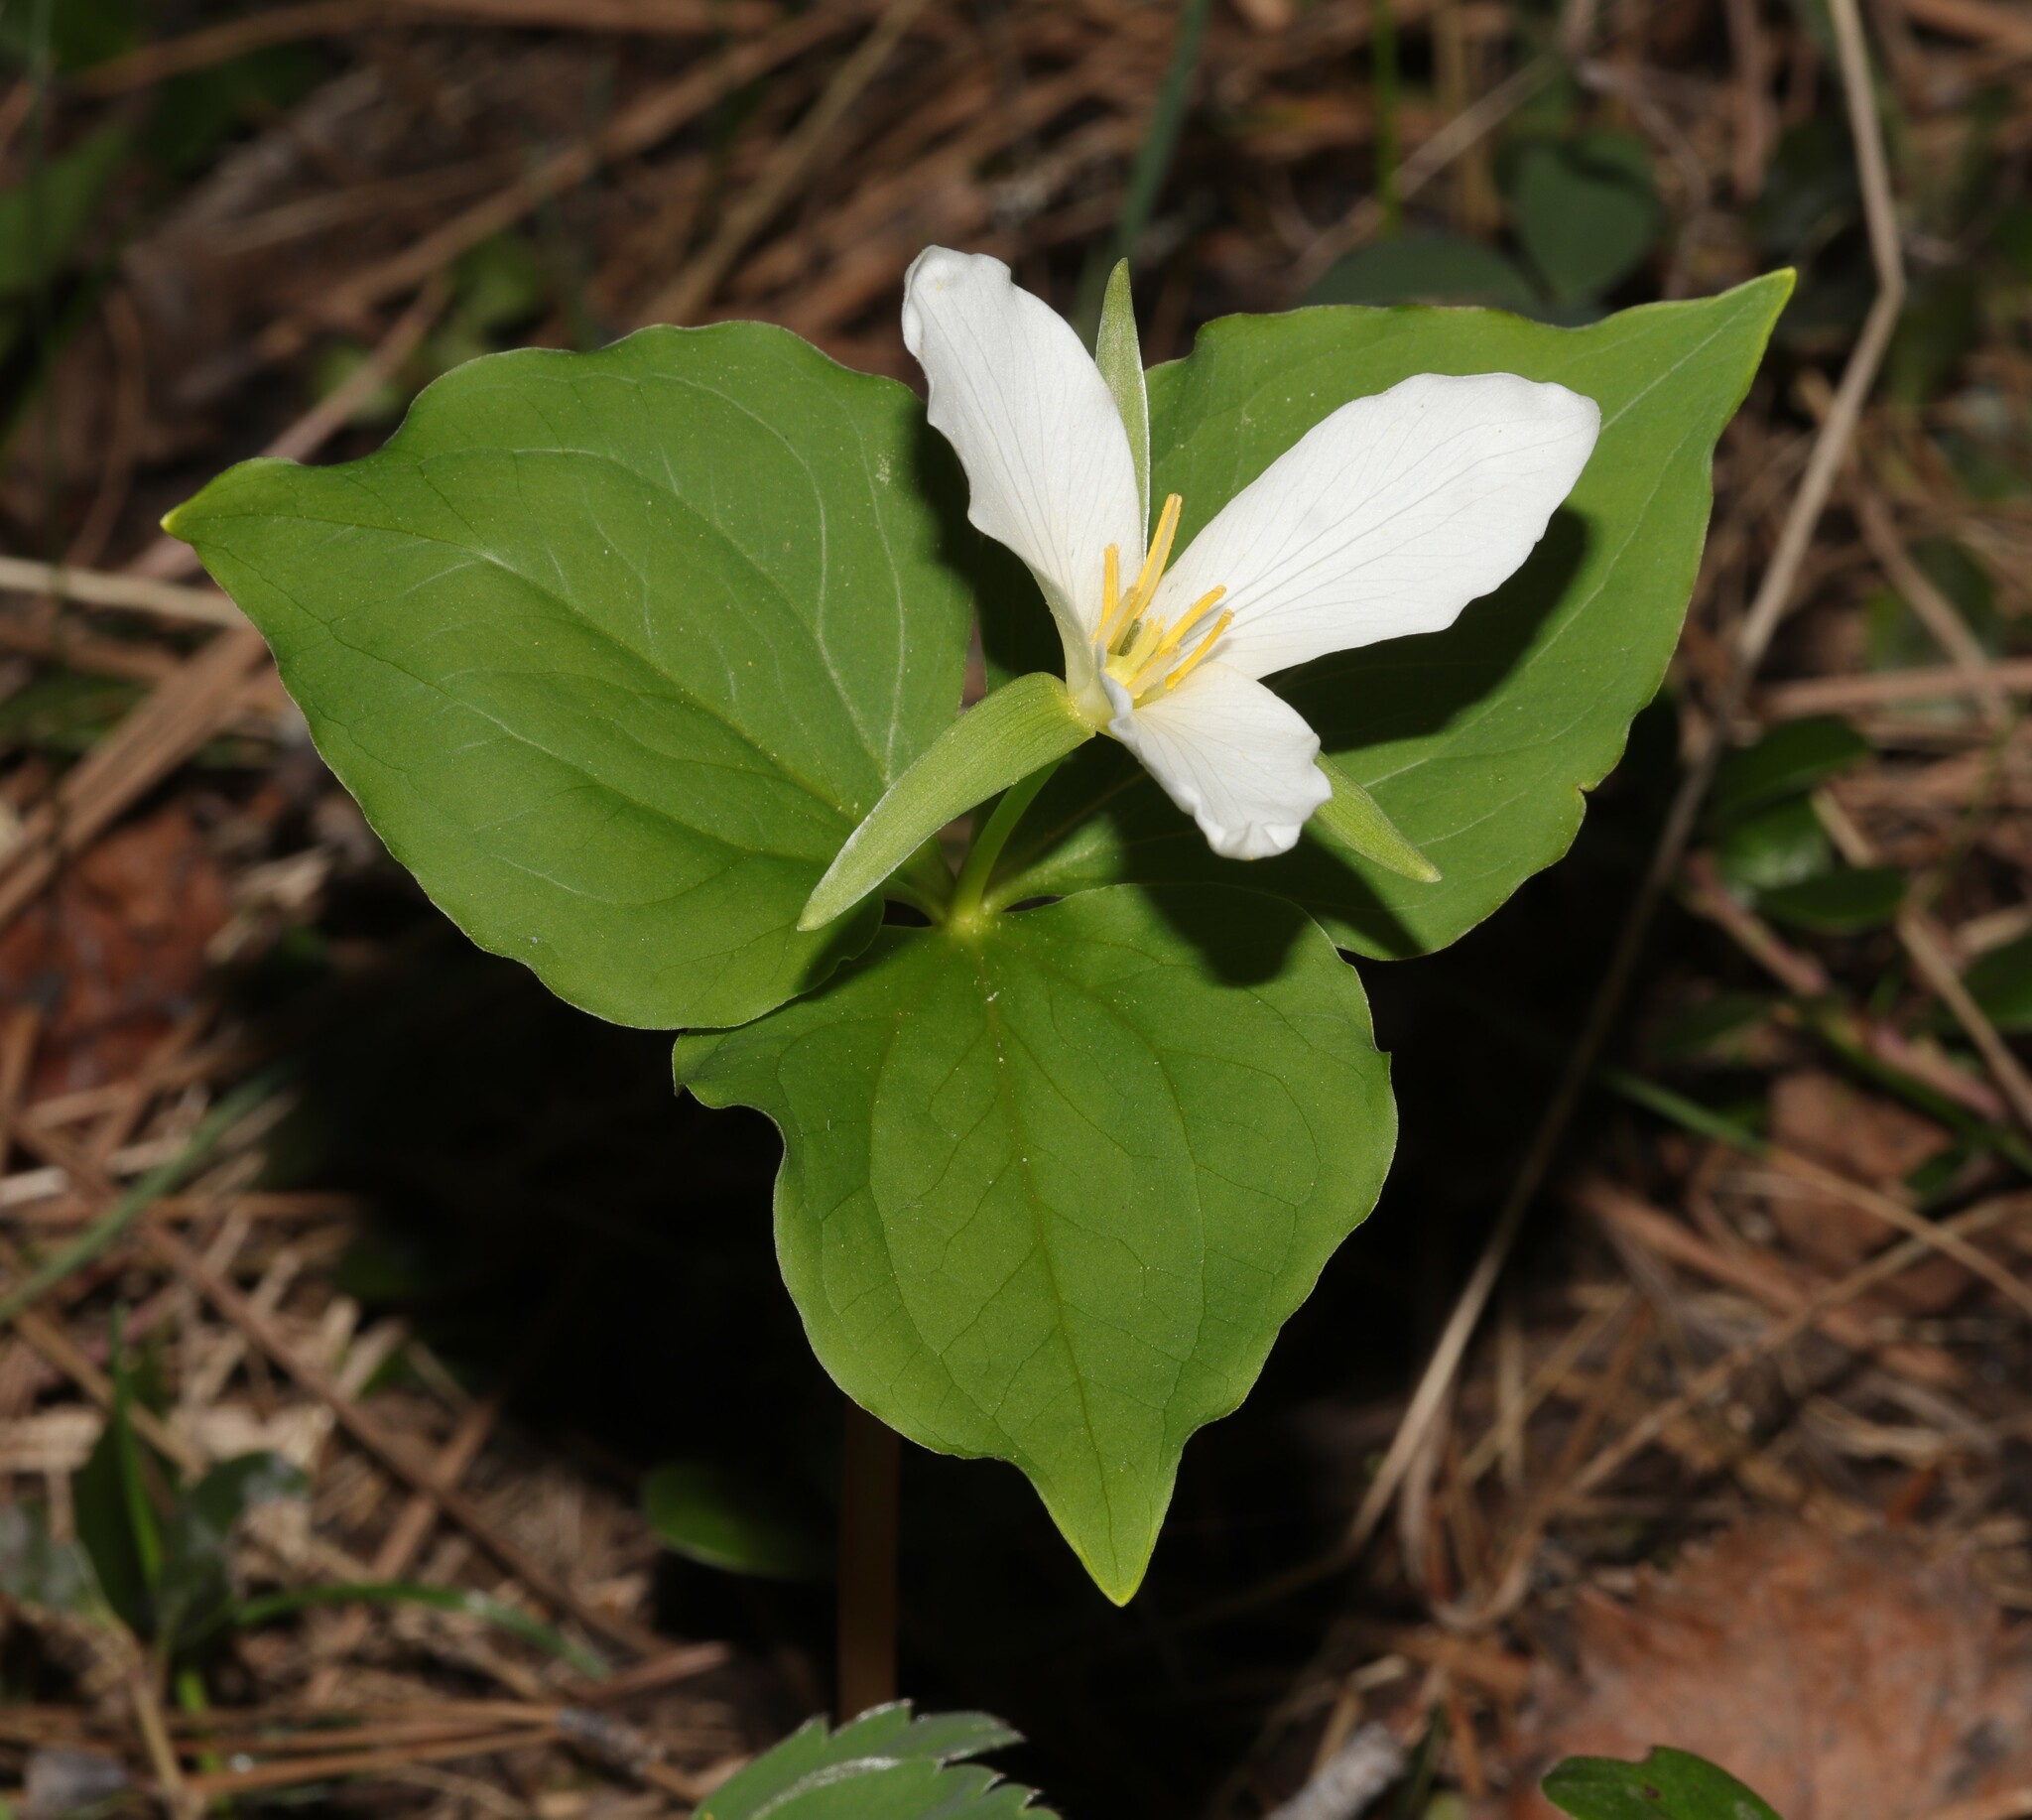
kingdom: Plantae
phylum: Tracheophyta
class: Liliopsida
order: Liliales
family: Melanthiaceae
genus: Trillium
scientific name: Trillium ovatum
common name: Pacific trillium
